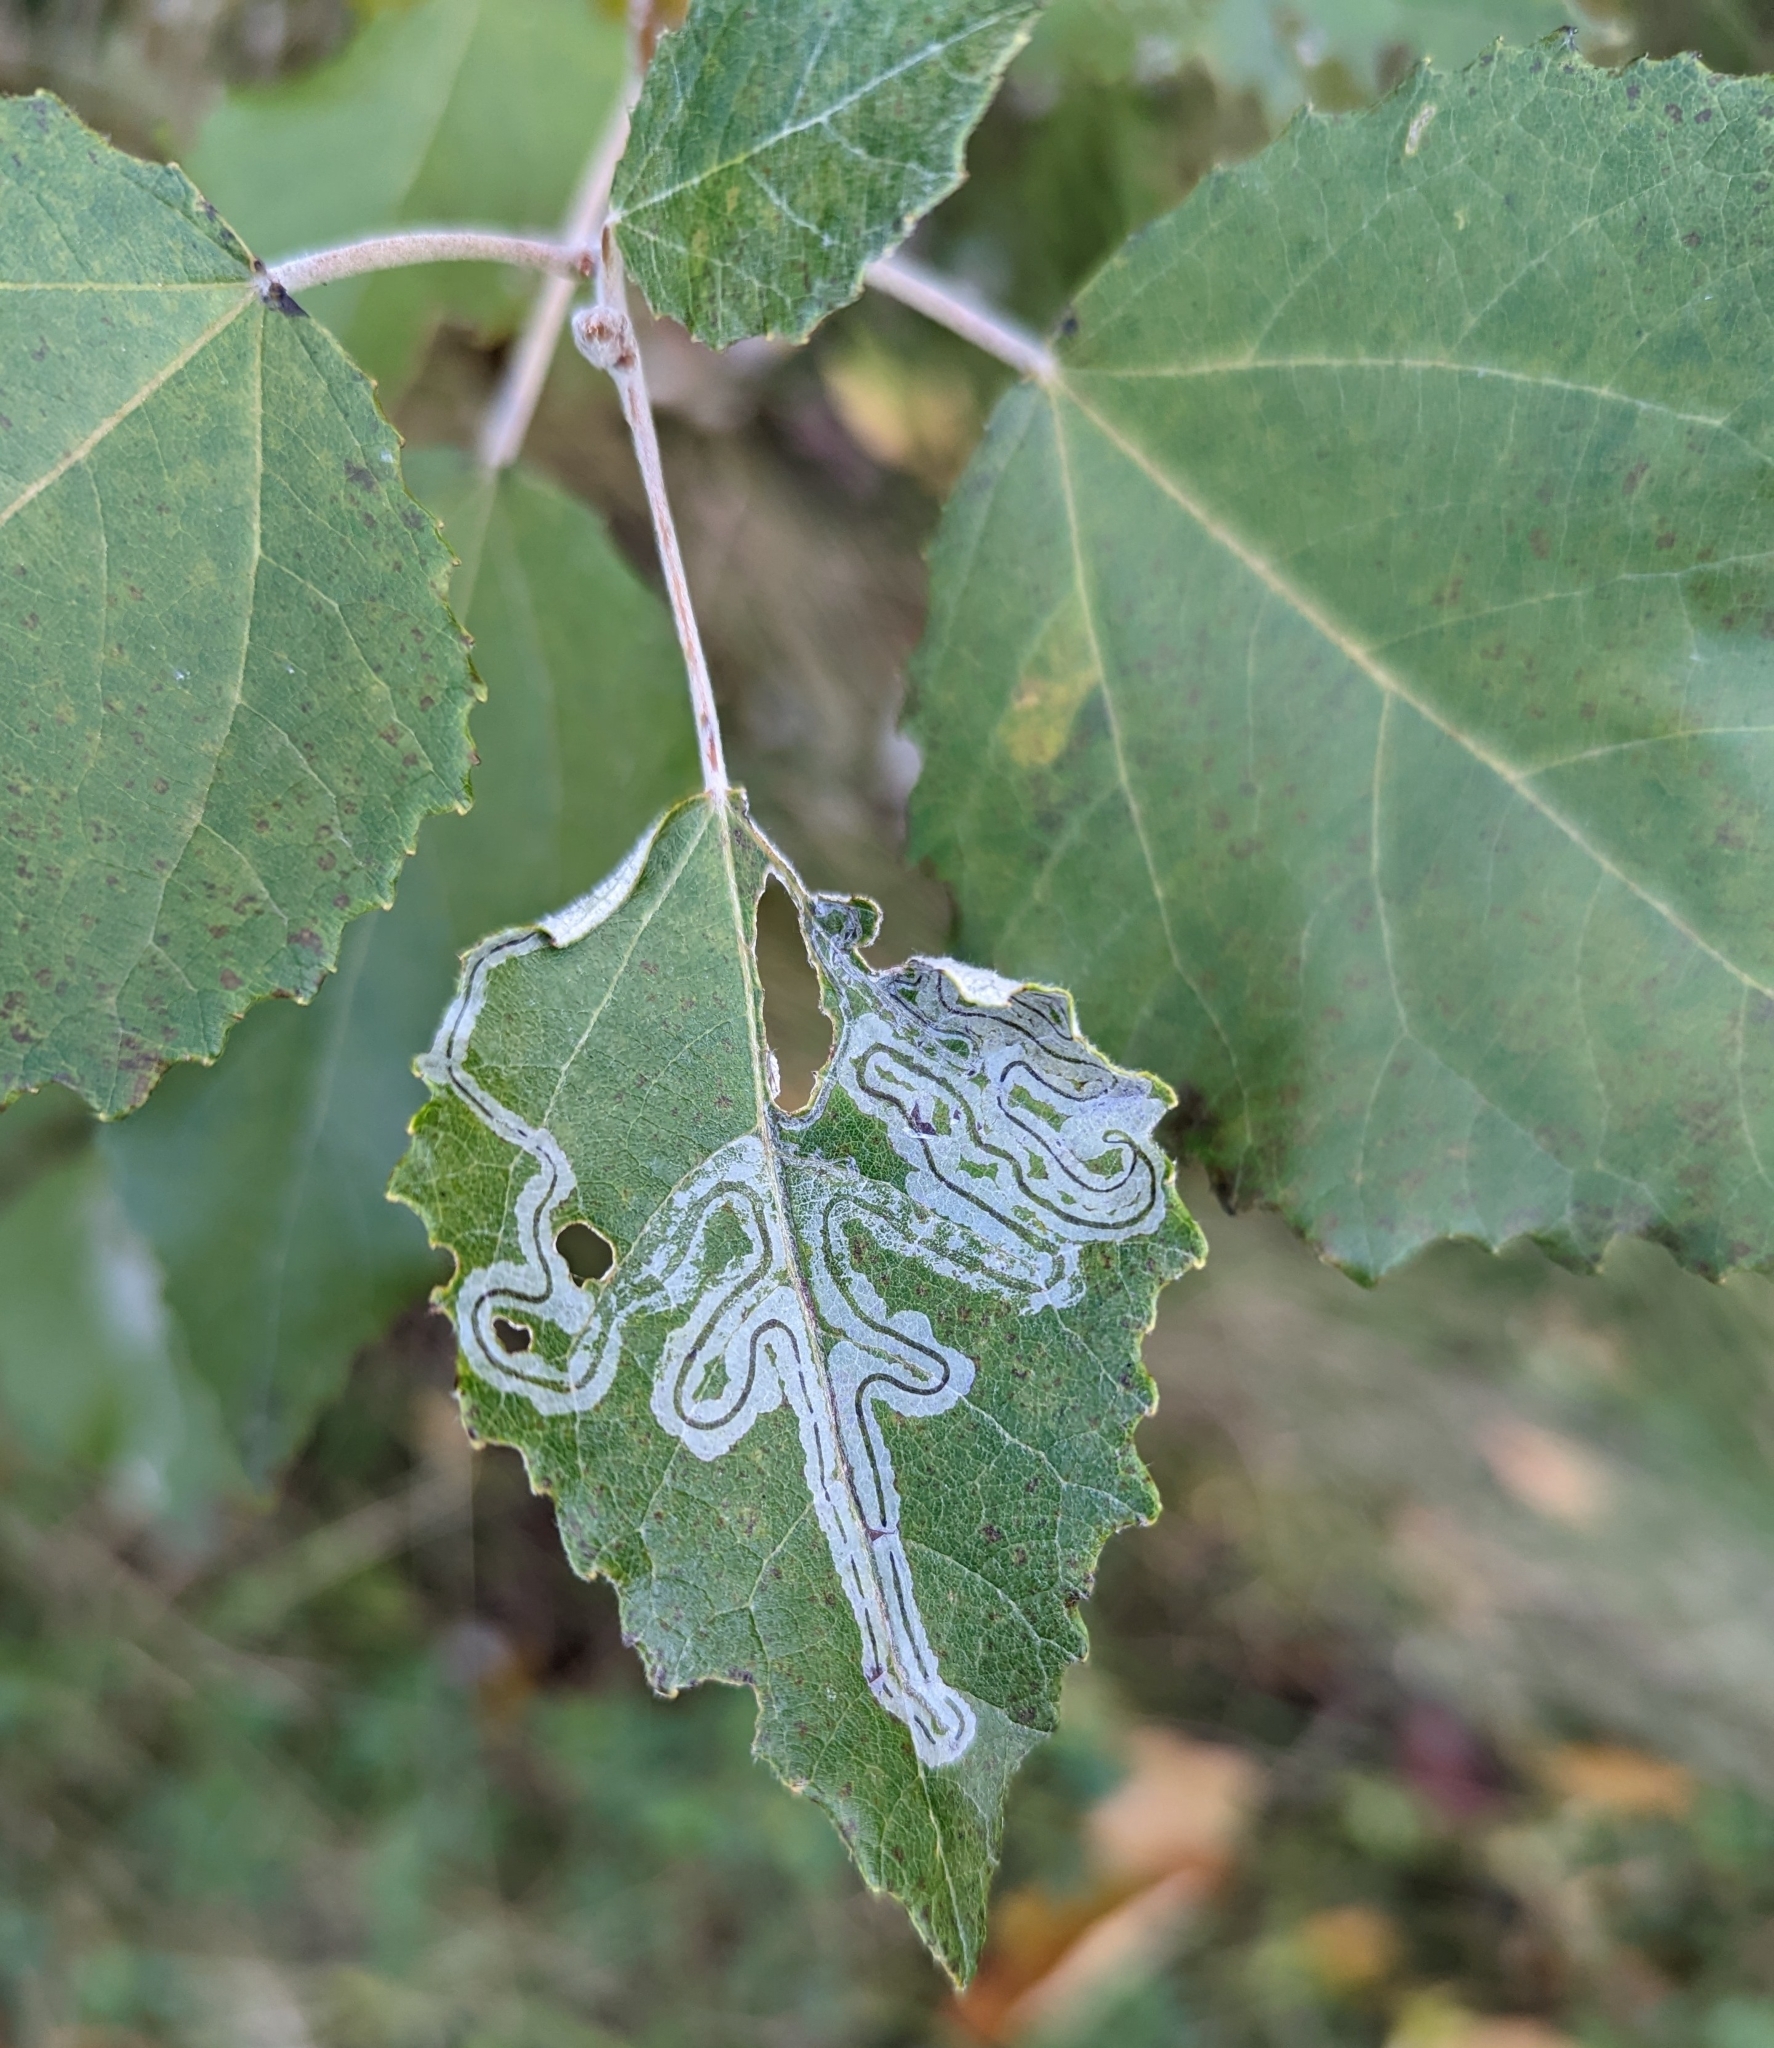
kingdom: Animalia
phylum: Arthropoda
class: Insecta
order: Lepidoptera
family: Gracillariidae
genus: Phyllocnistis
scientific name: Phyllocnistis populiella
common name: Aspen serpentine leafminer moth
